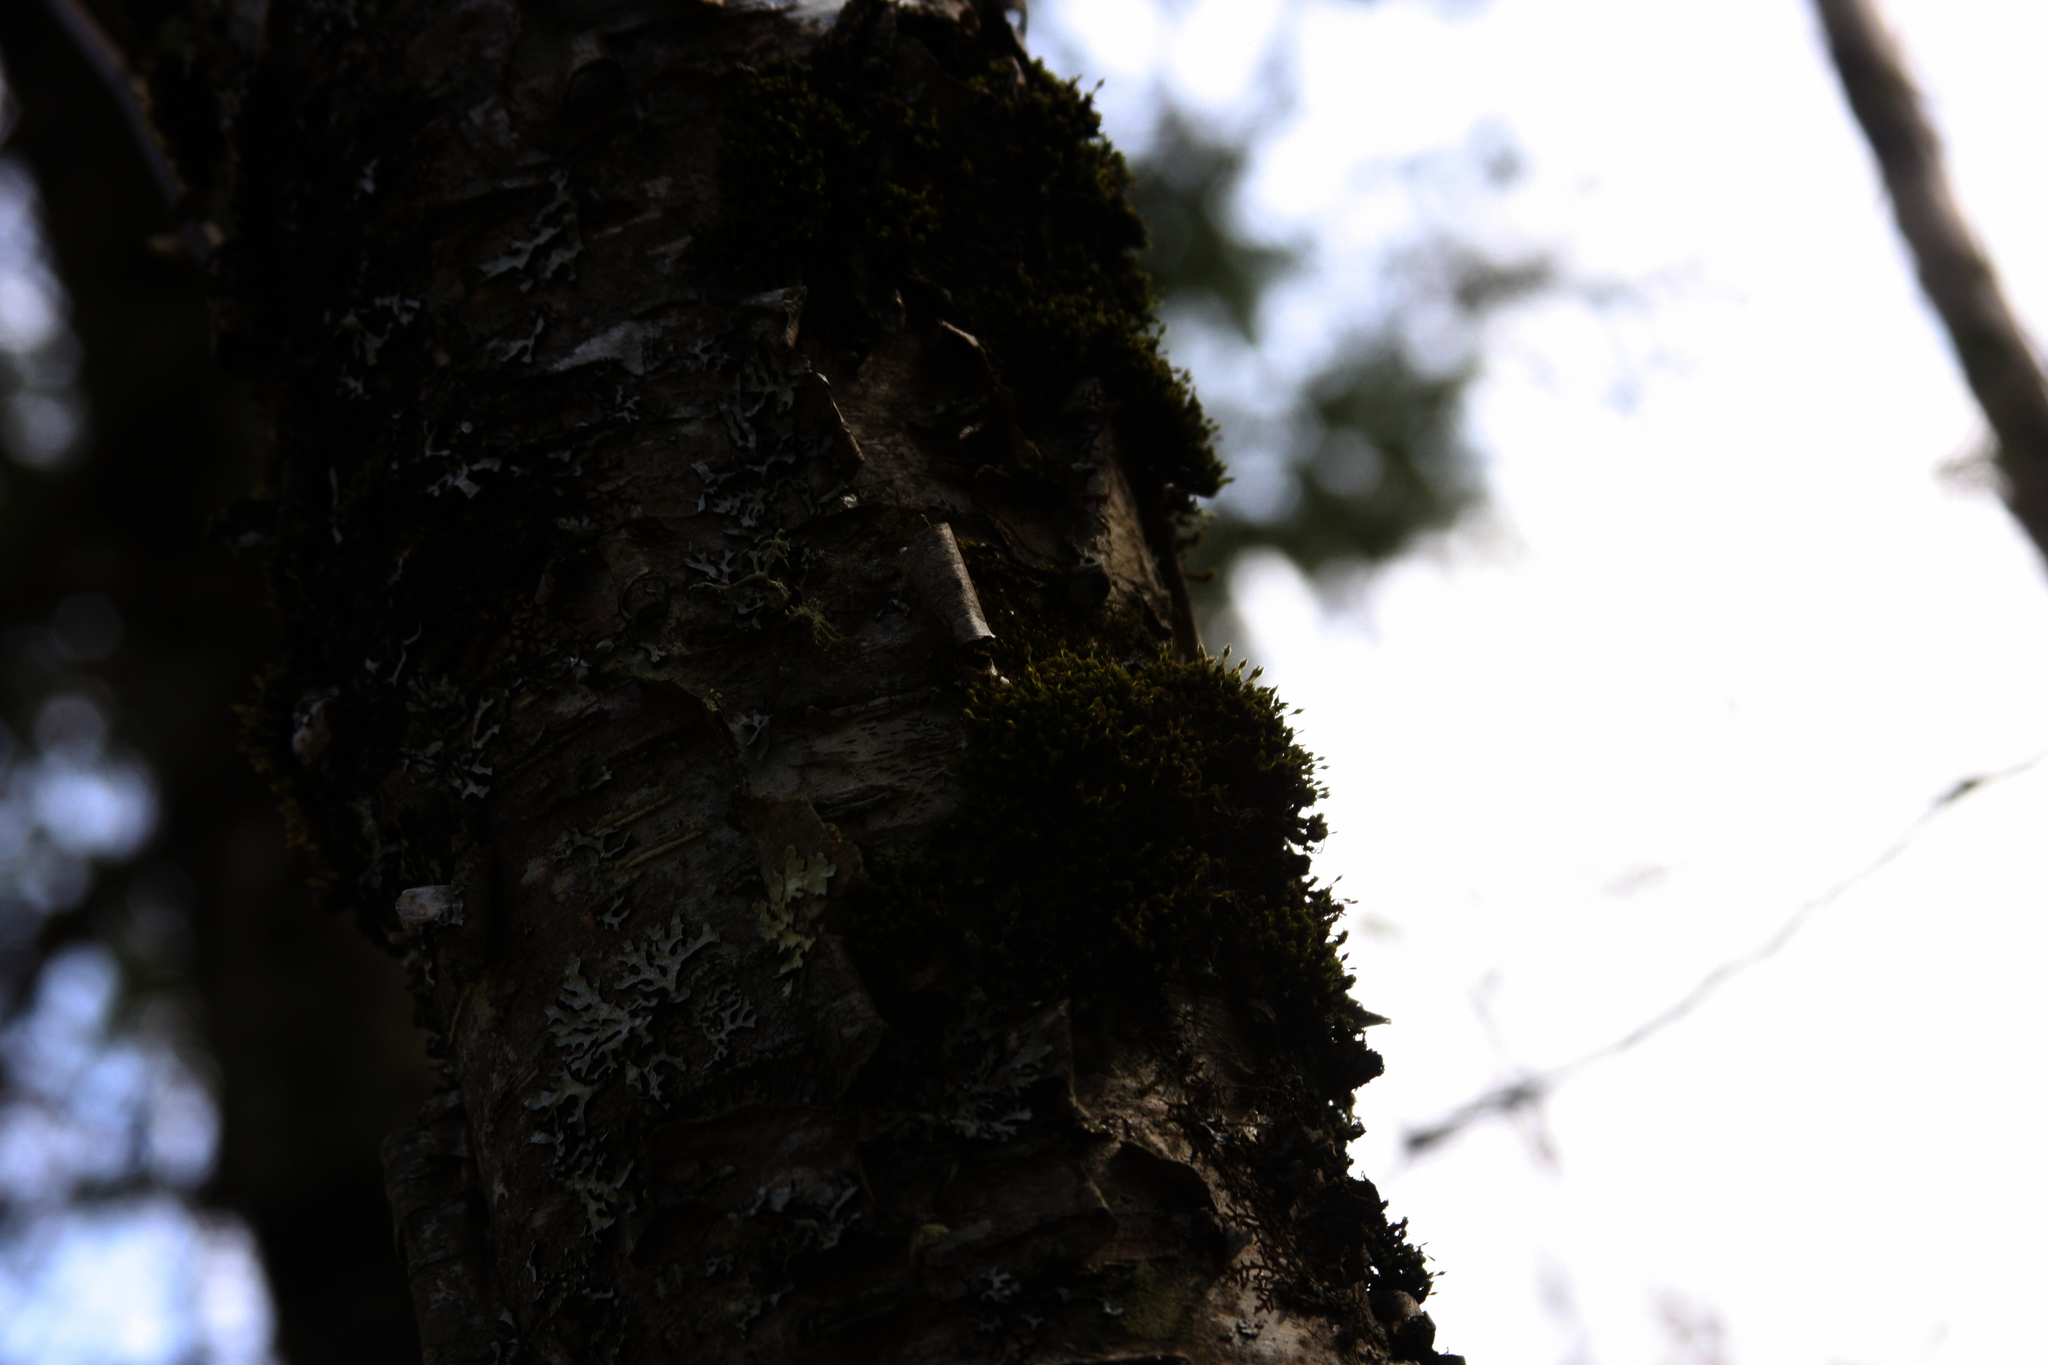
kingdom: Plantae
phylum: Bryophyta
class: Bryopsida
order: Orthotrichales
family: Orthotrichaceae
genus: Ulota
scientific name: Ulota crispa
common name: Crisped pincushion moss
